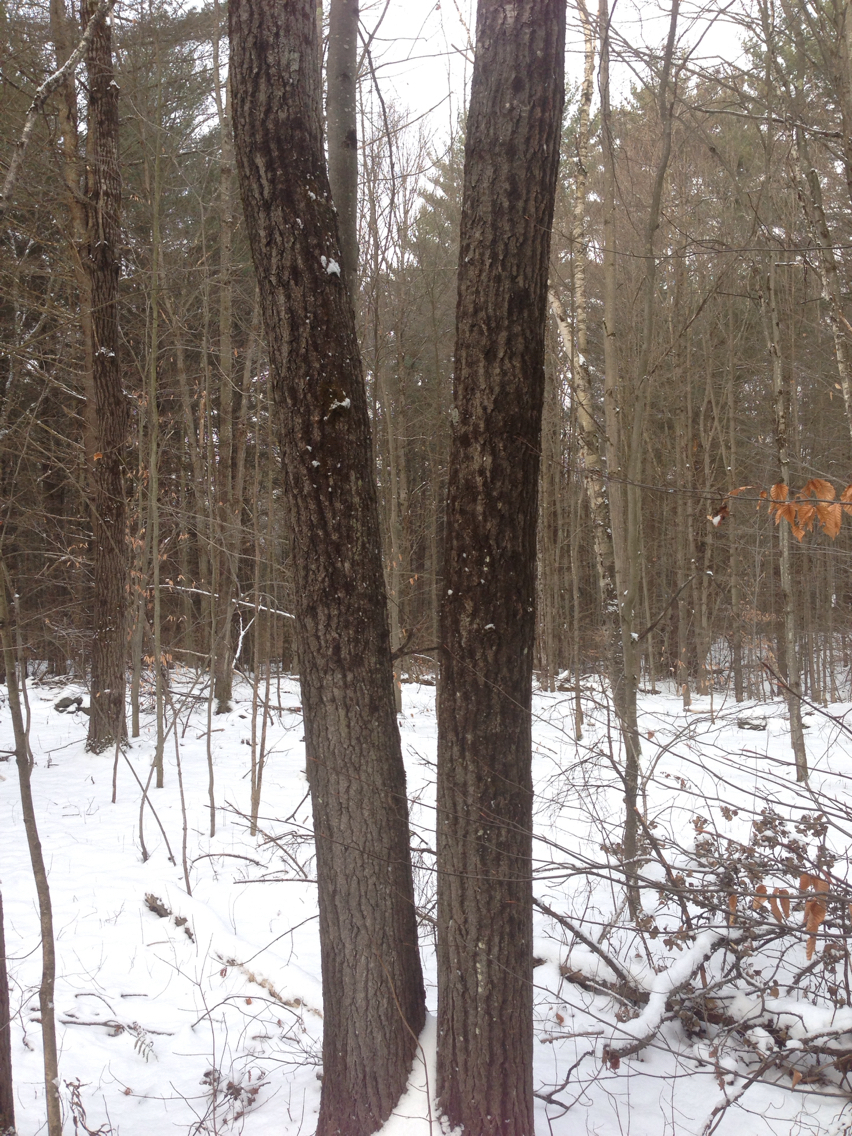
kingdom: Plantae
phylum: Tracheophyta
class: Magnoliopsida
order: Malpighiales
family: Salicaceae
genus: Populus
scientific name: Populus grandidentata
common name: Bigtooth aspen
